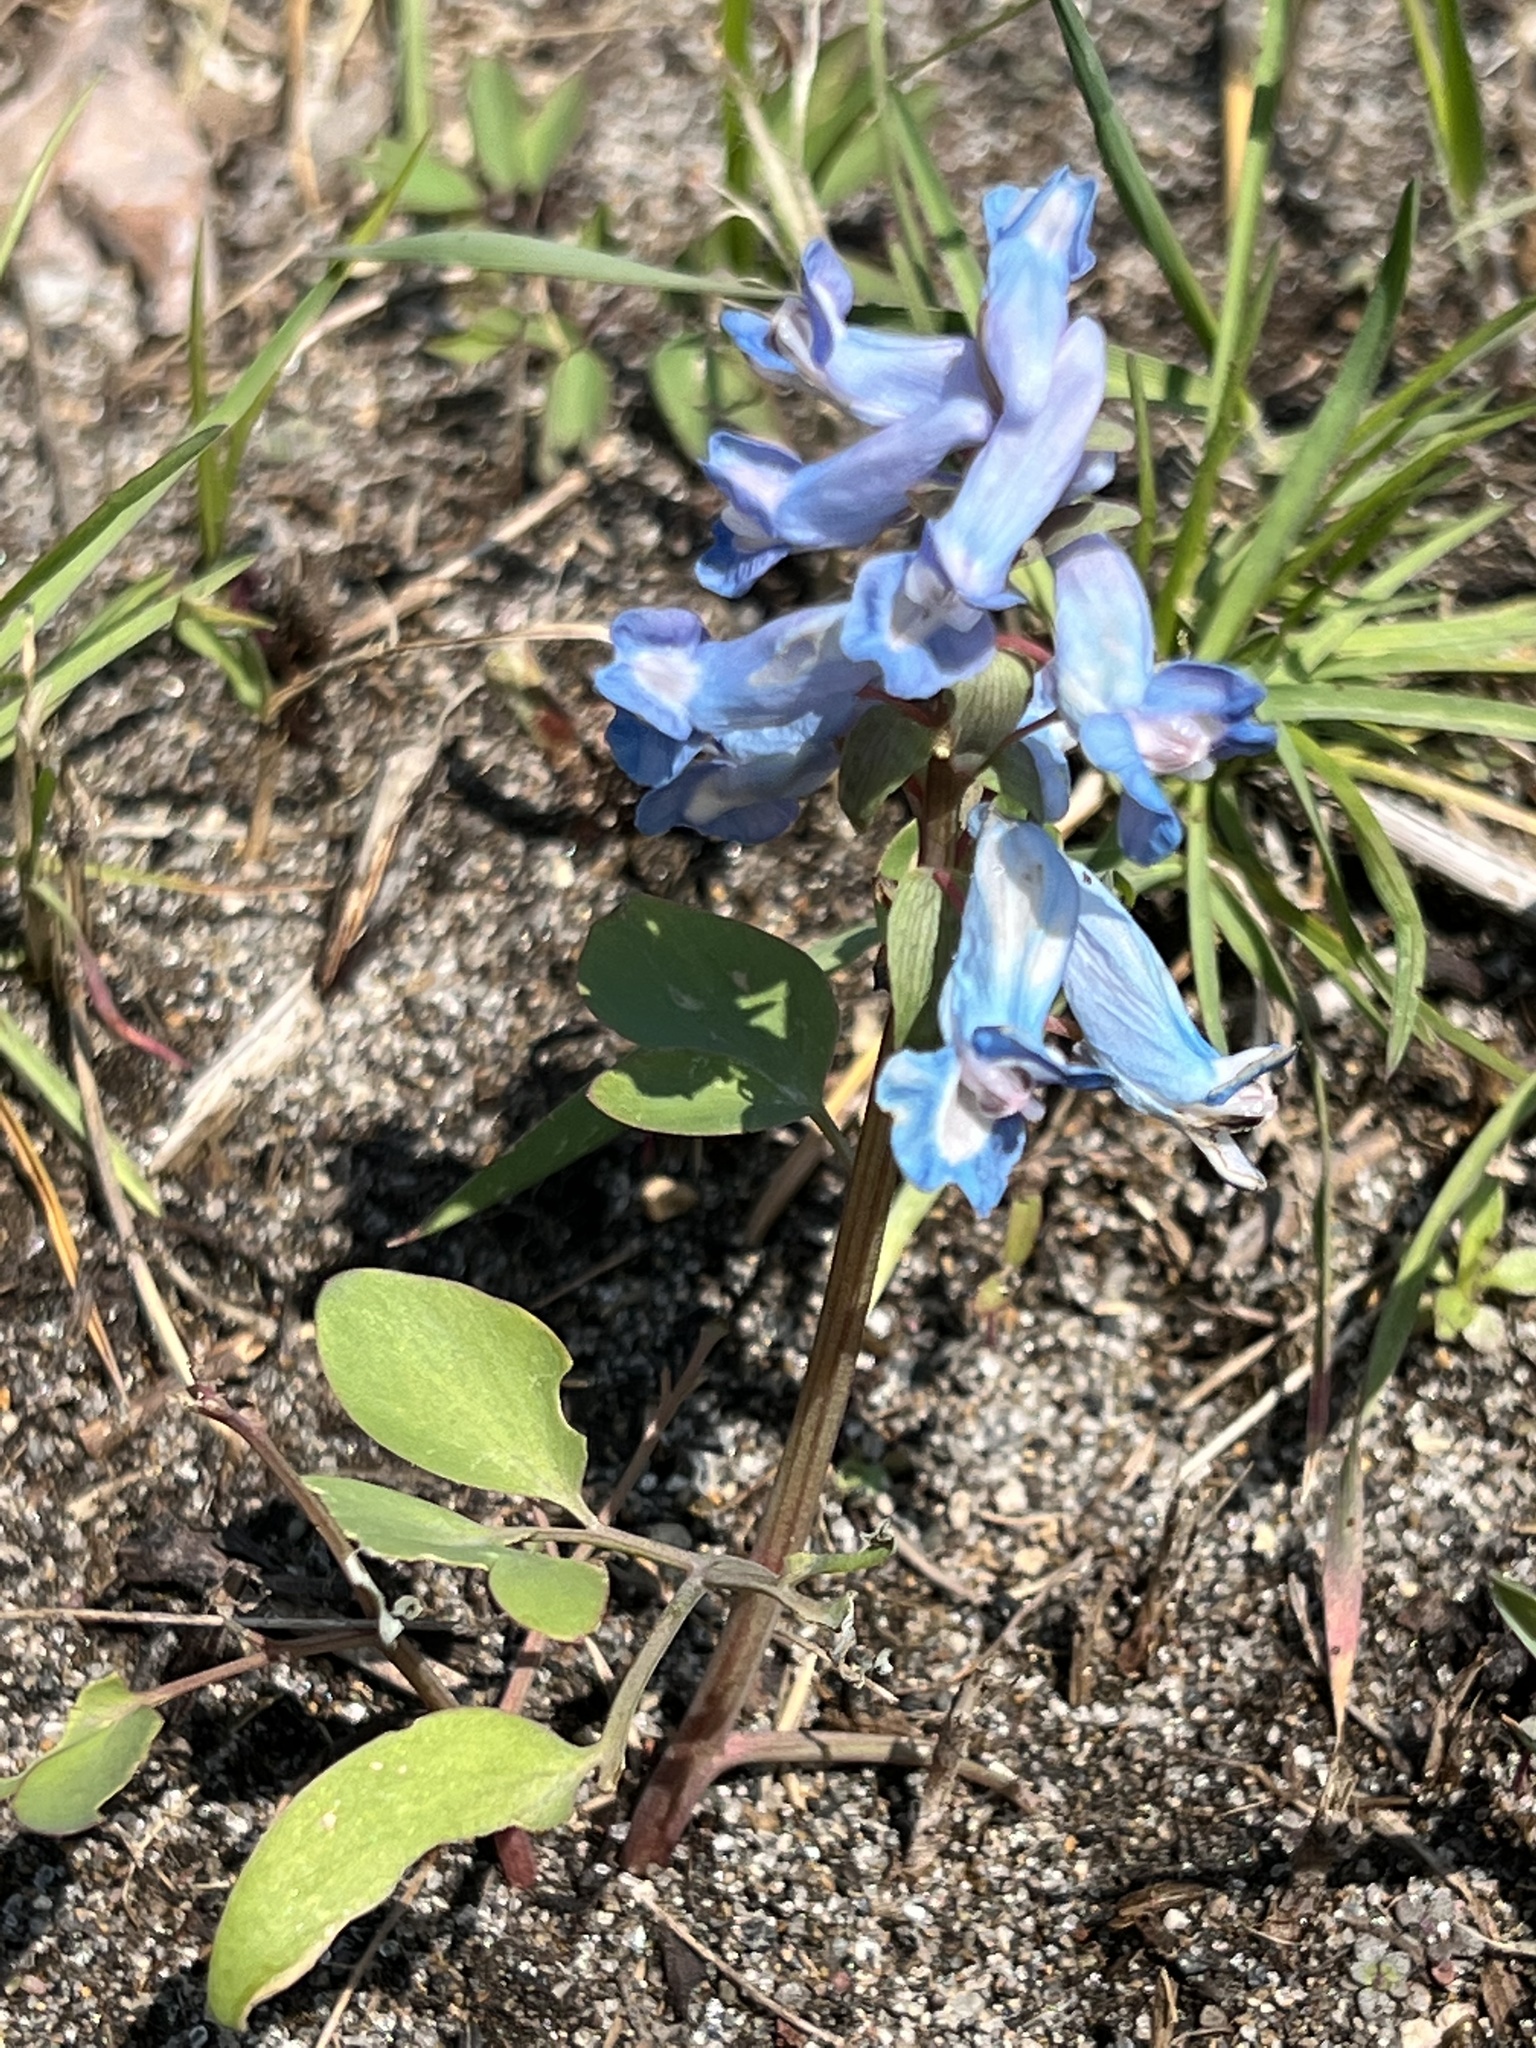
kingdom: Plantae
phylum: Tracheophyta
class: Magnoliopsida
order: Ranunculales
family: Papaveraceae
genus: Corydalis
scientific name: Corydalis fumariifolia
